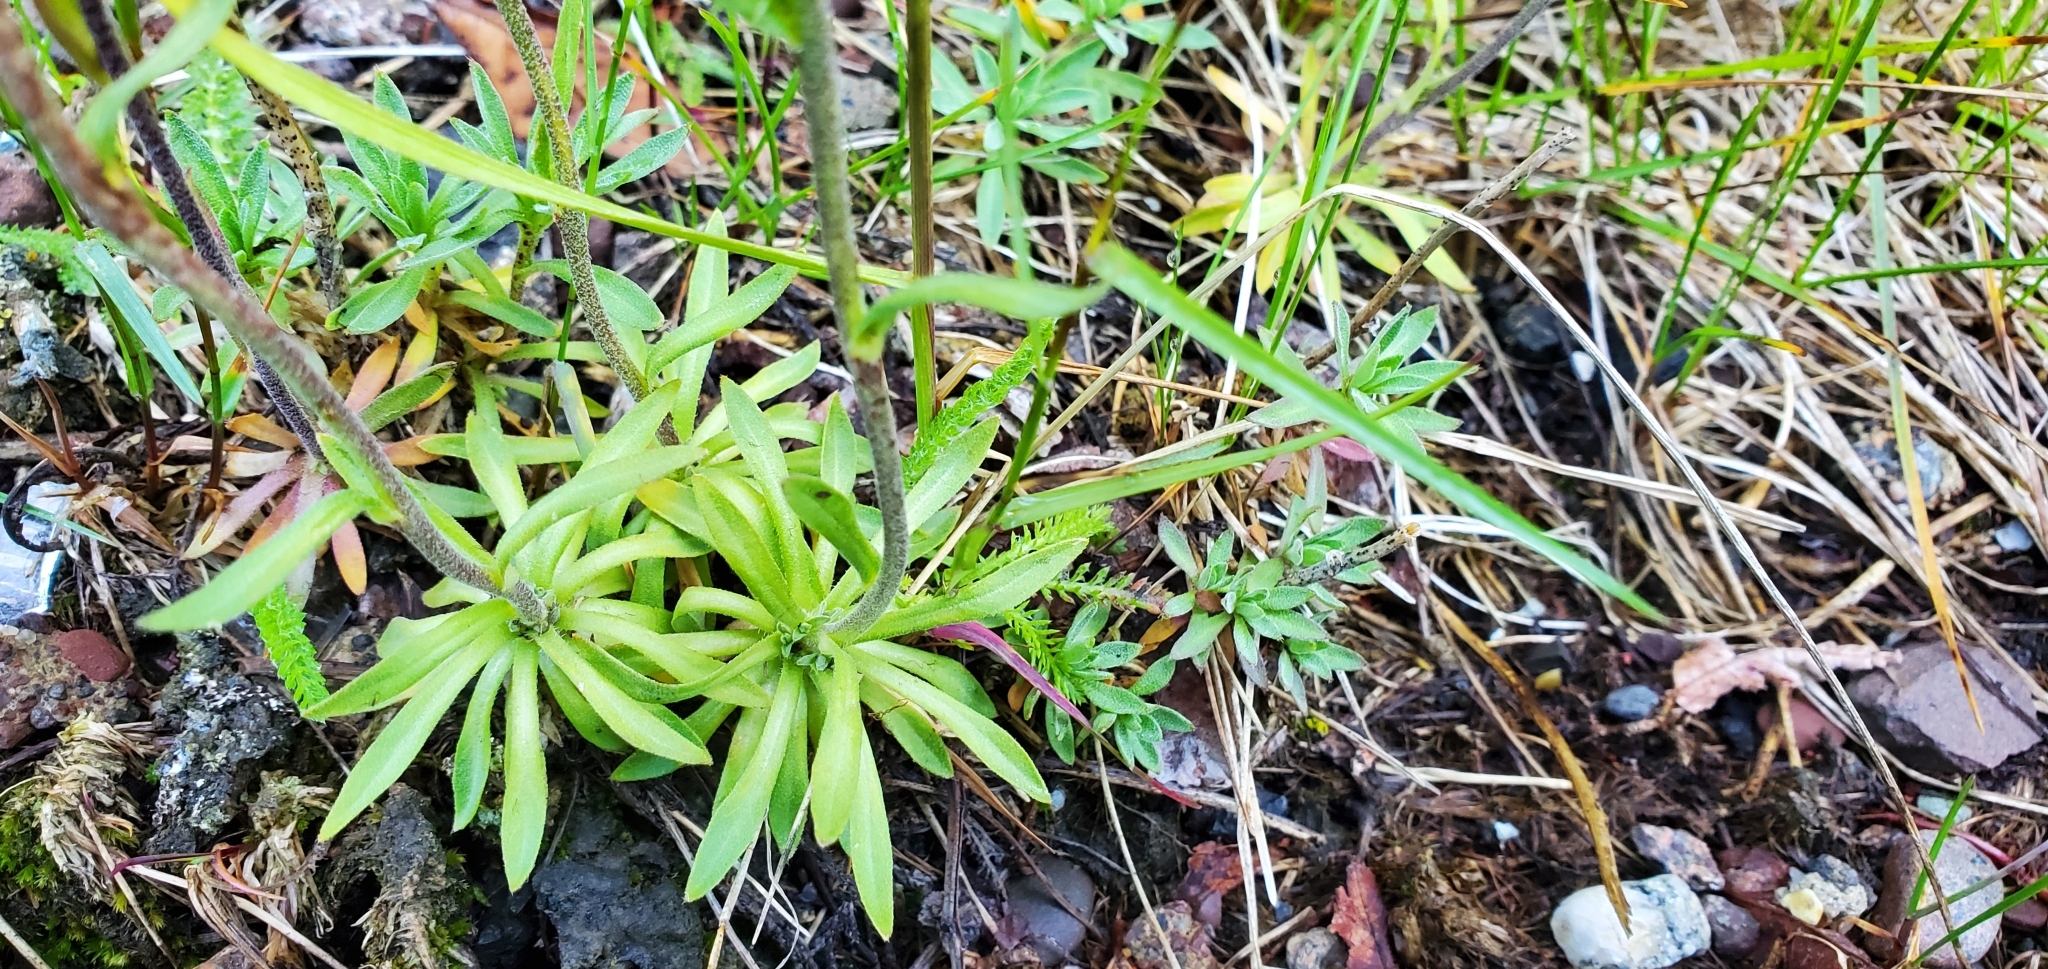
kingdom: Plantae
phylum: Tracheophyta
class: Magnoliopsida
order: Brassicales
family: Brassicaceae
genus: Draba
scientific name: Draba arabisans
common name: Rock draba
